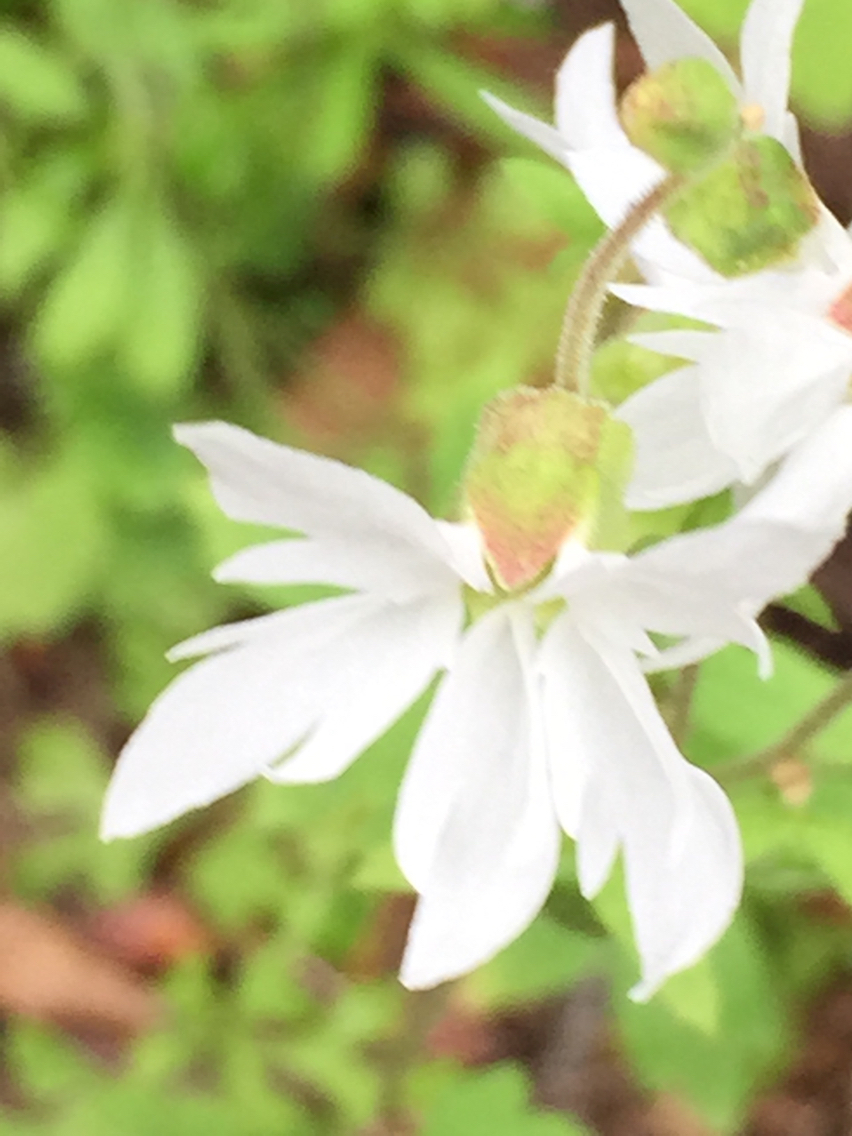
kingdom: Plantae
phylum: Tracheophyta
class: Magnoliopsida
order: Saxifragales
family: Saxifragaceae
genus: Lithophragma
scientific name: Lithophragma heterophyllum
